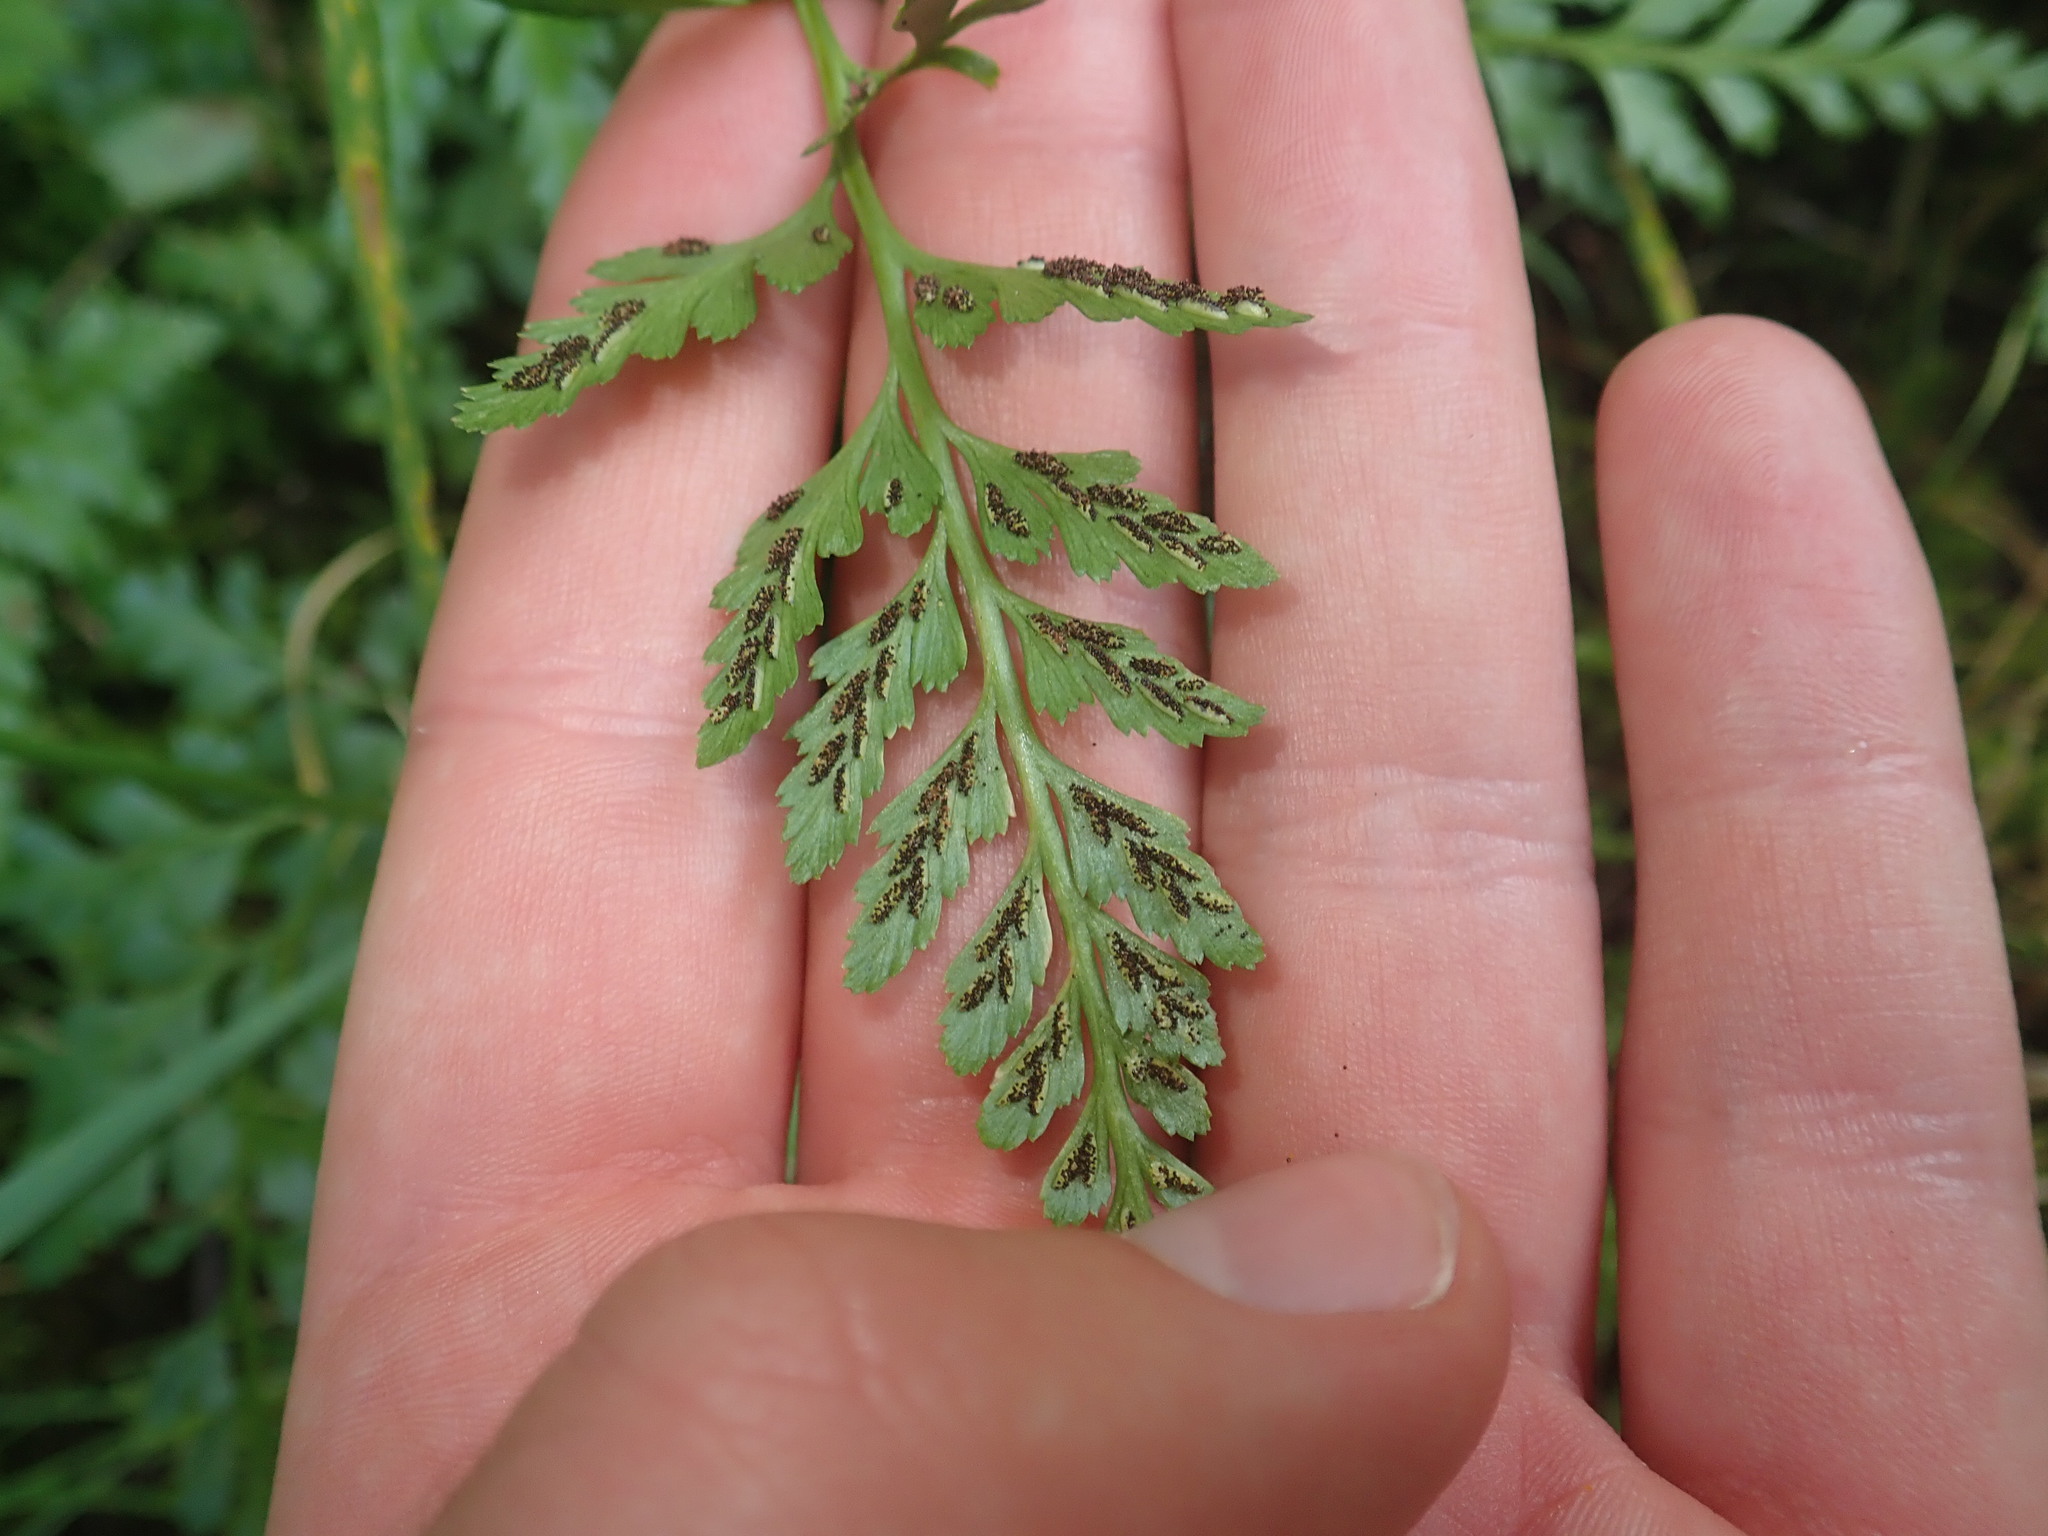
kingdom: Plantae
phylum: Tracheophyta
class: Polypodiopsida
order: Polypodiales
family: Aspleniaceae
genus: Asplenium
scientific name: Asplenium adiantum-nigrum
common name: Black spleenwort
